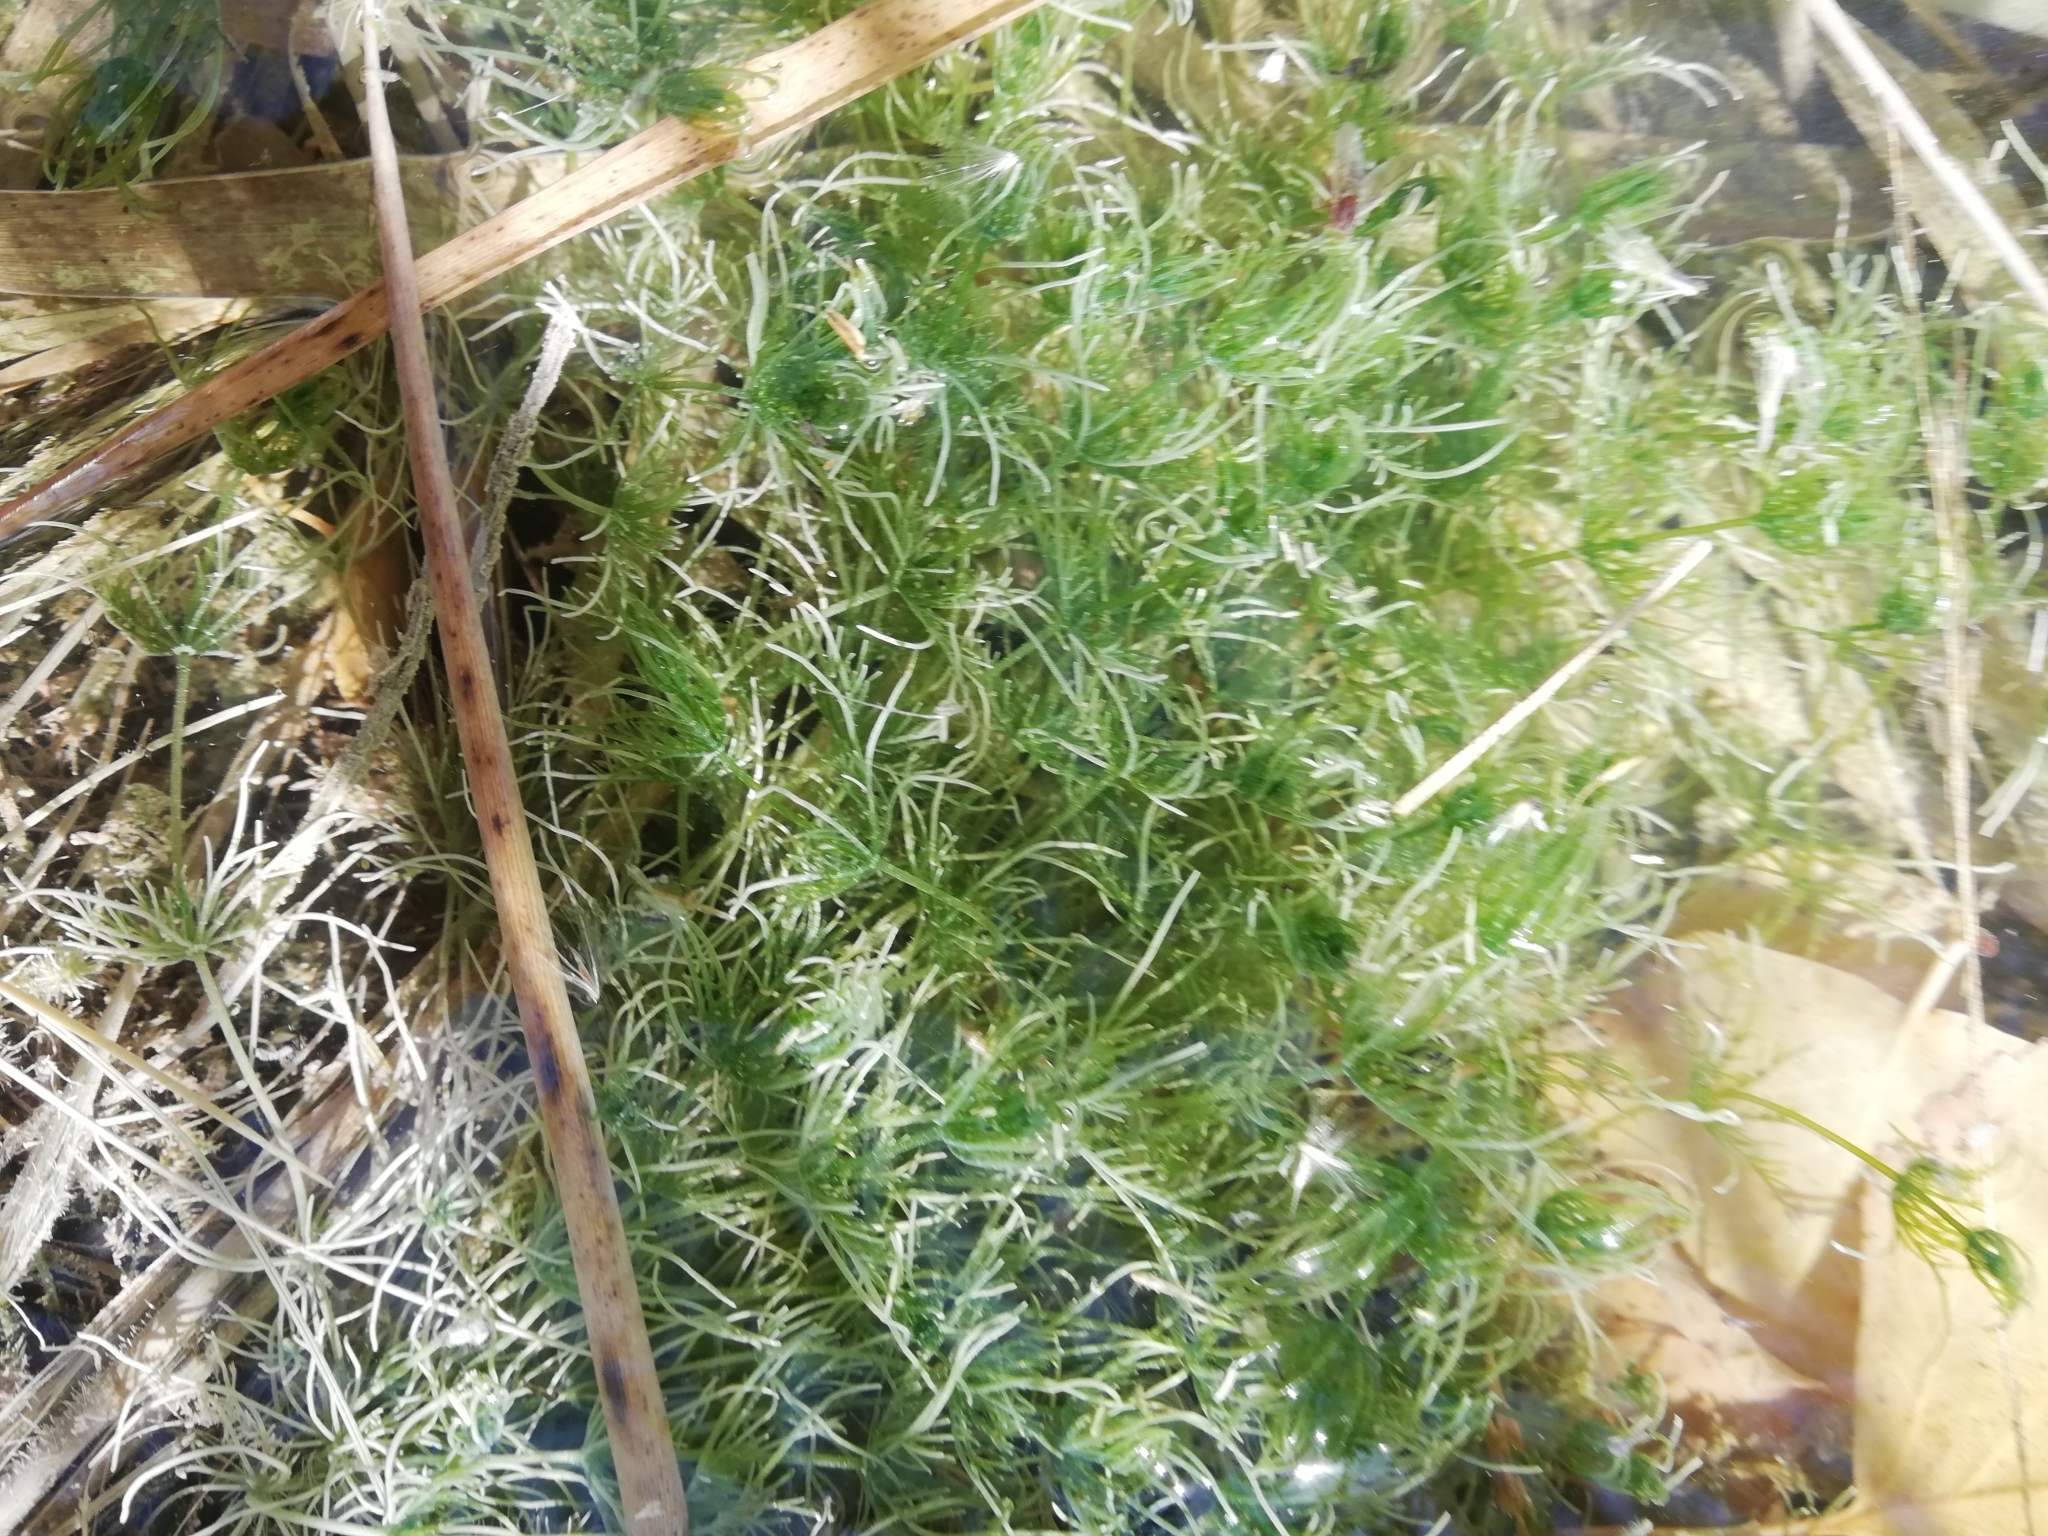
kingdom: Plantae
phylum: Charophyta
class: Charophyceae
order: Charales
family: Characeae
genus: Chara
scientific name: Chara vulgaris
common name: Common stonewort
